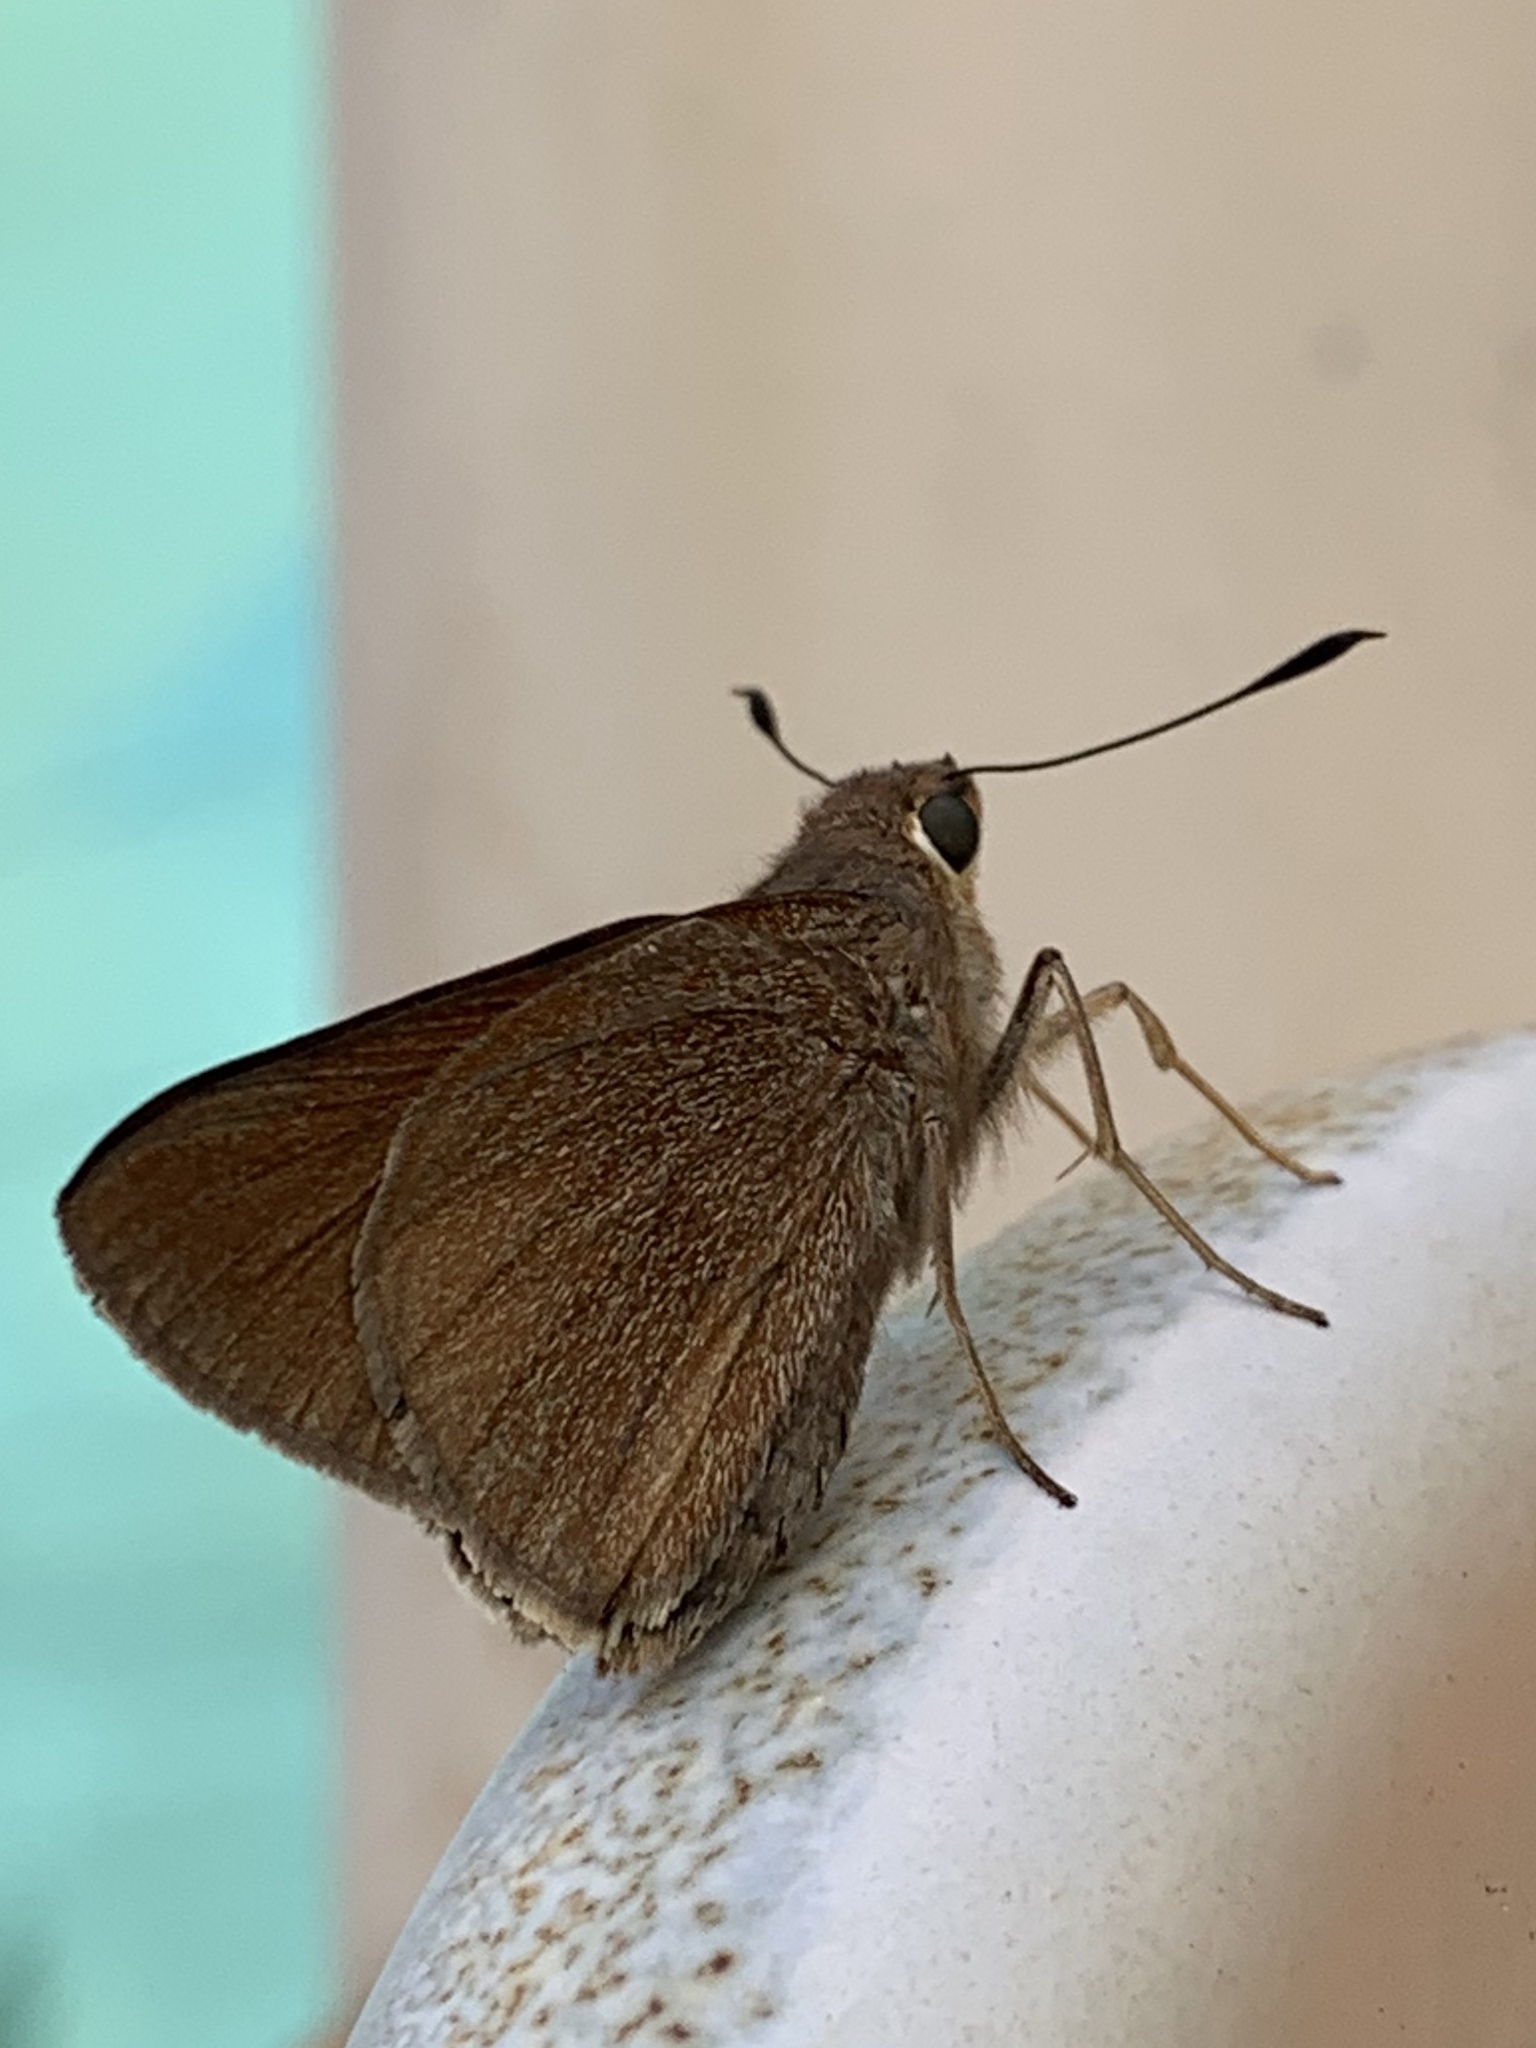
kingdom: Animalia
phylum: Arthropoda
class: Insecta
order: Lepidoptera
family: Hesperiidae
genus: Asbolis
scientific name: Asbolis capucinus
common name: Monk skipper
